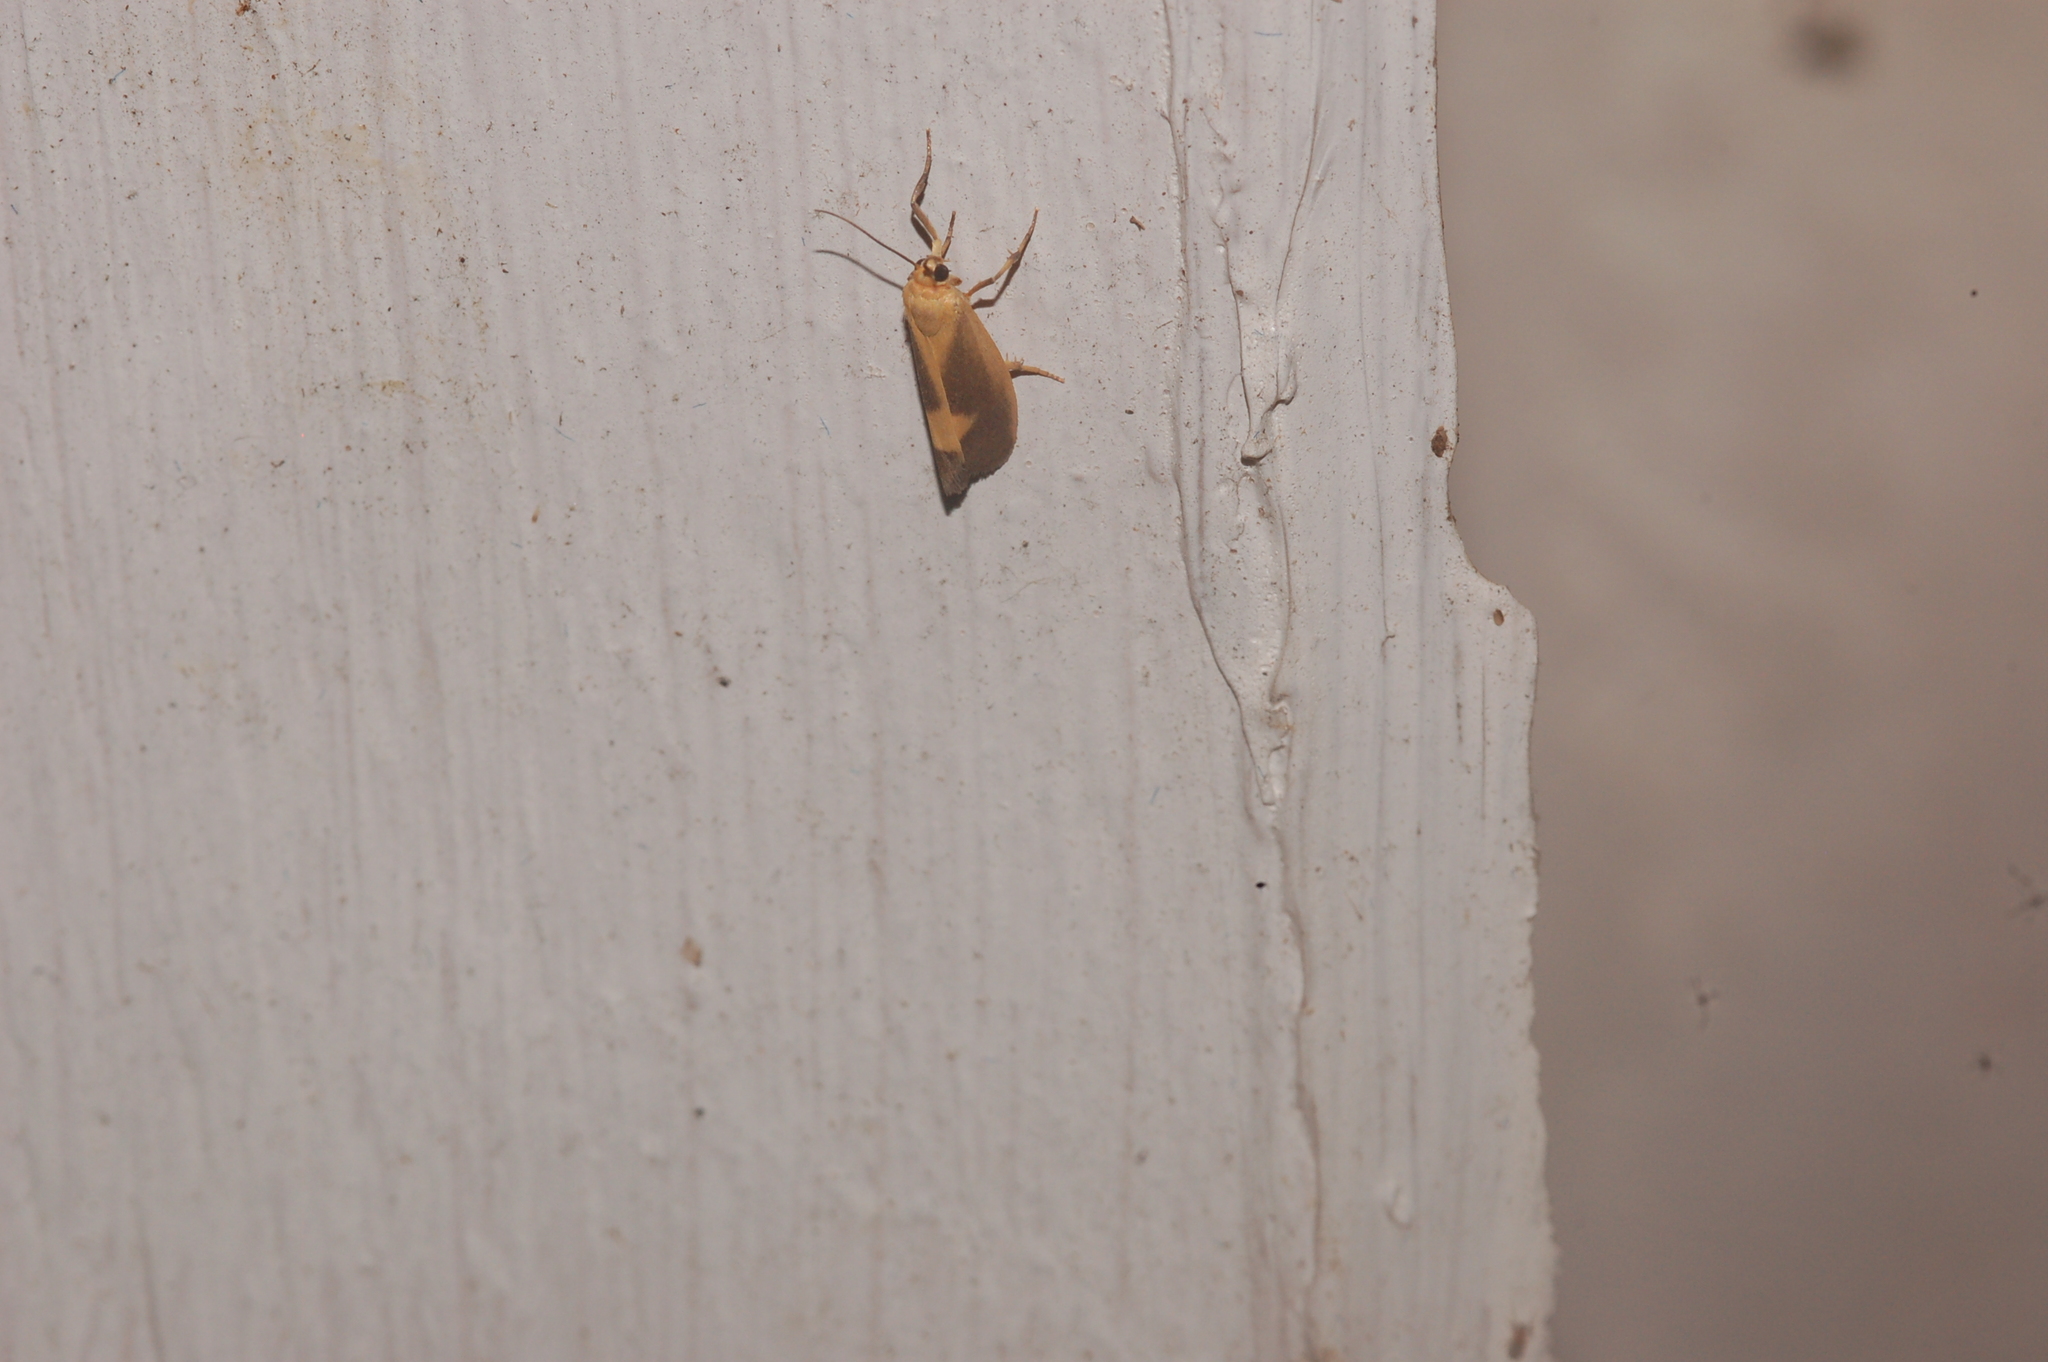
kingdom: Animalia
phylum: Arthropoda
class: Insecta
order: Lepidoptera
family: Erebidae
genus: Cisthene
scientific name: Cisthene plumbea
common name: Lead colored lichen moth
